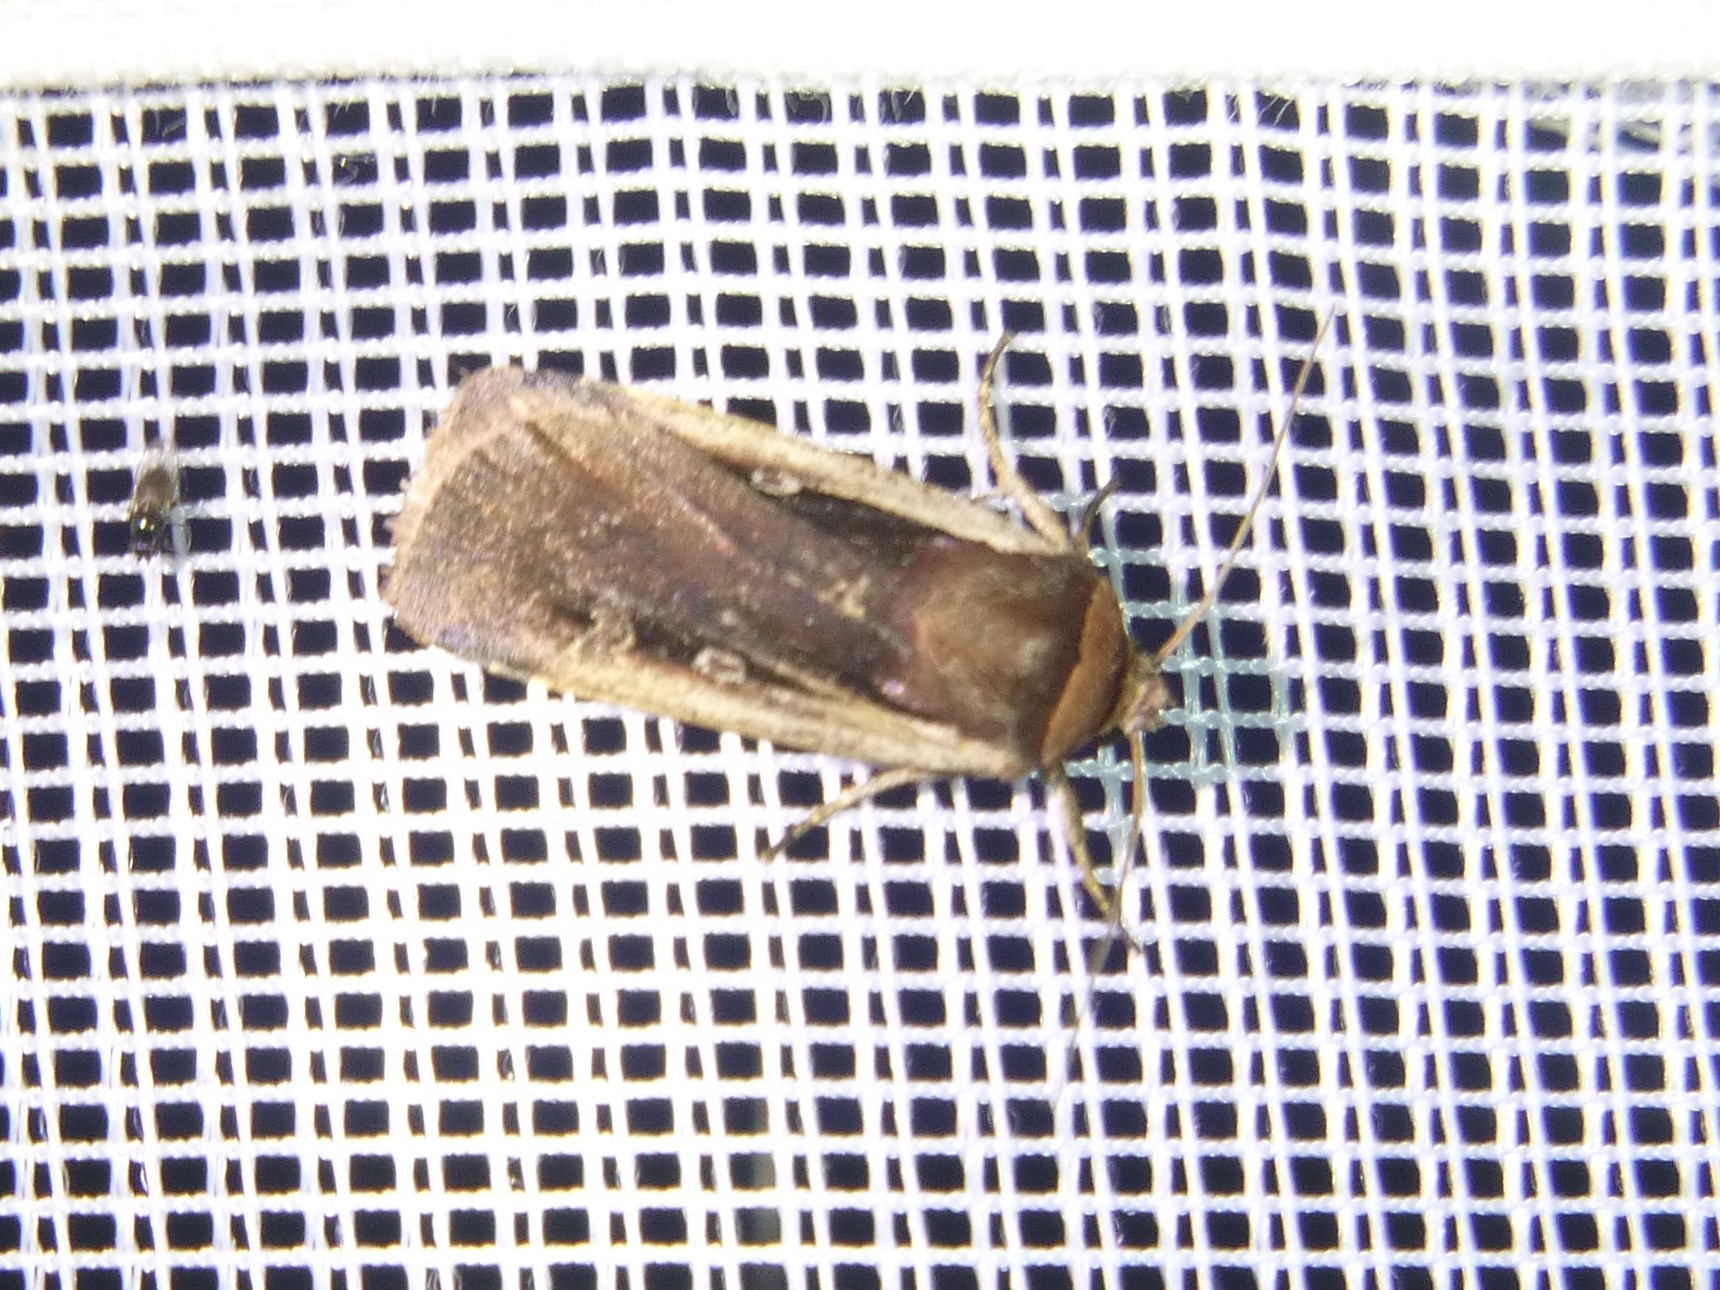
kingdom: Animalia
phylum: Arthropoda
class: Insecta
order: Lepidoptera
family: Noctuidae
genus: Ochropleura
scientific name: Ochropleura plecta
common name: Flame shoulder
